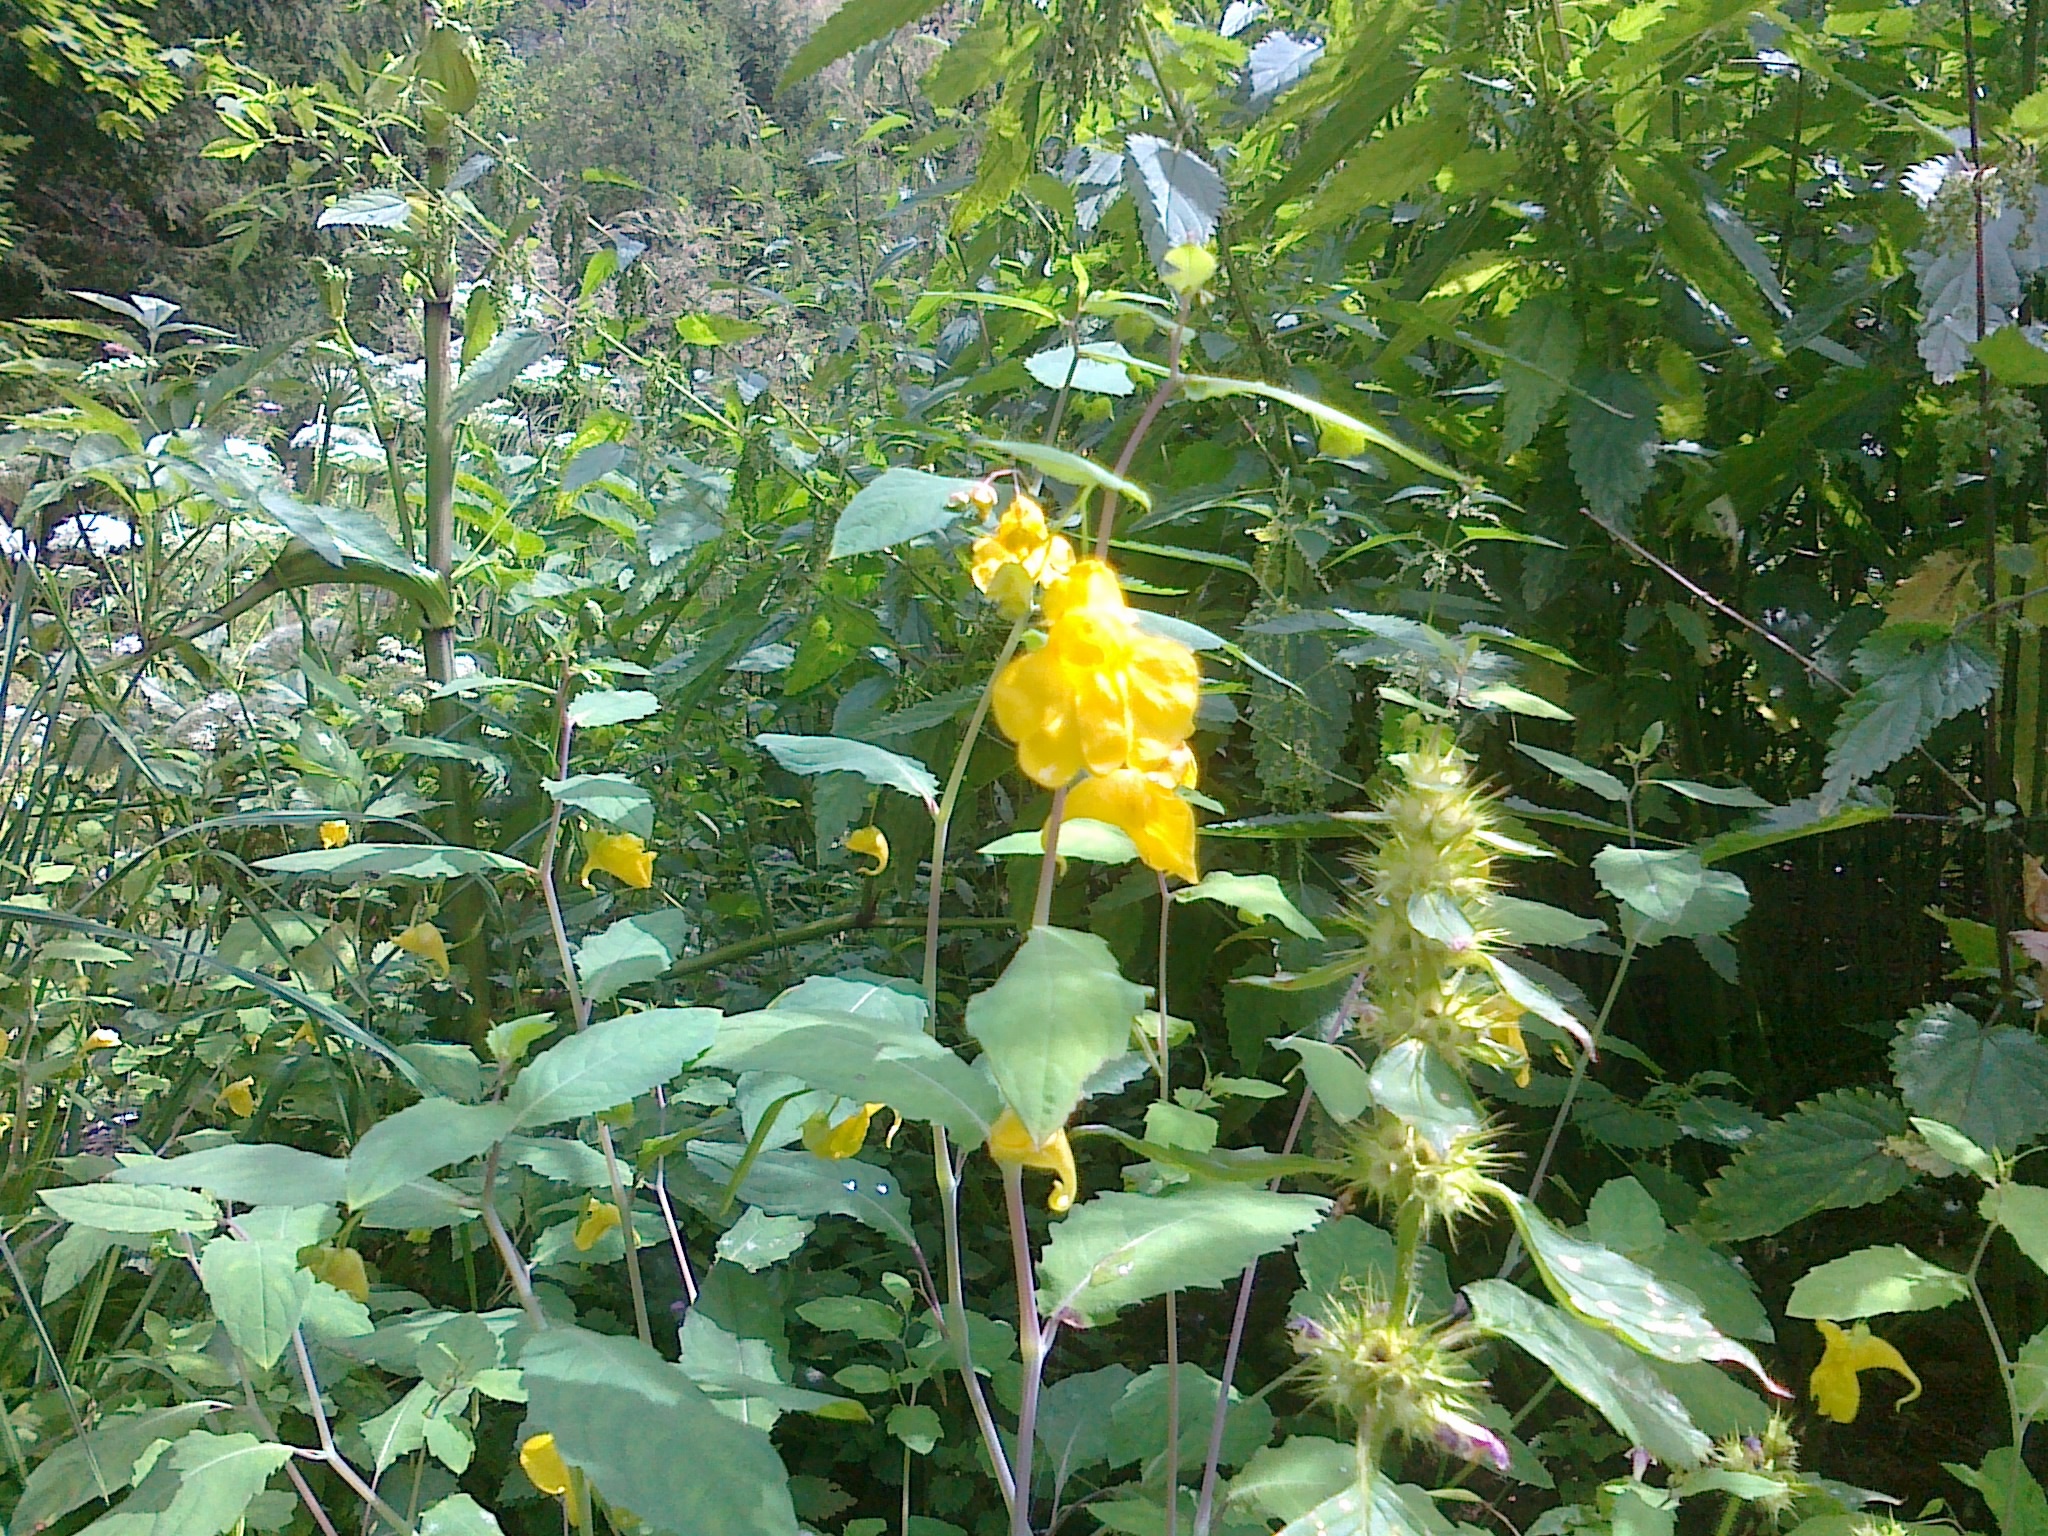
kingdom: Plantae
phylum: Tracheophyta
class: Magnoliopsida
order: Ericales
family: Balsaminaceae
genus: Impatiens
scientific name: Impatiens noli-tangere
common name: Touch-me-not balsam
